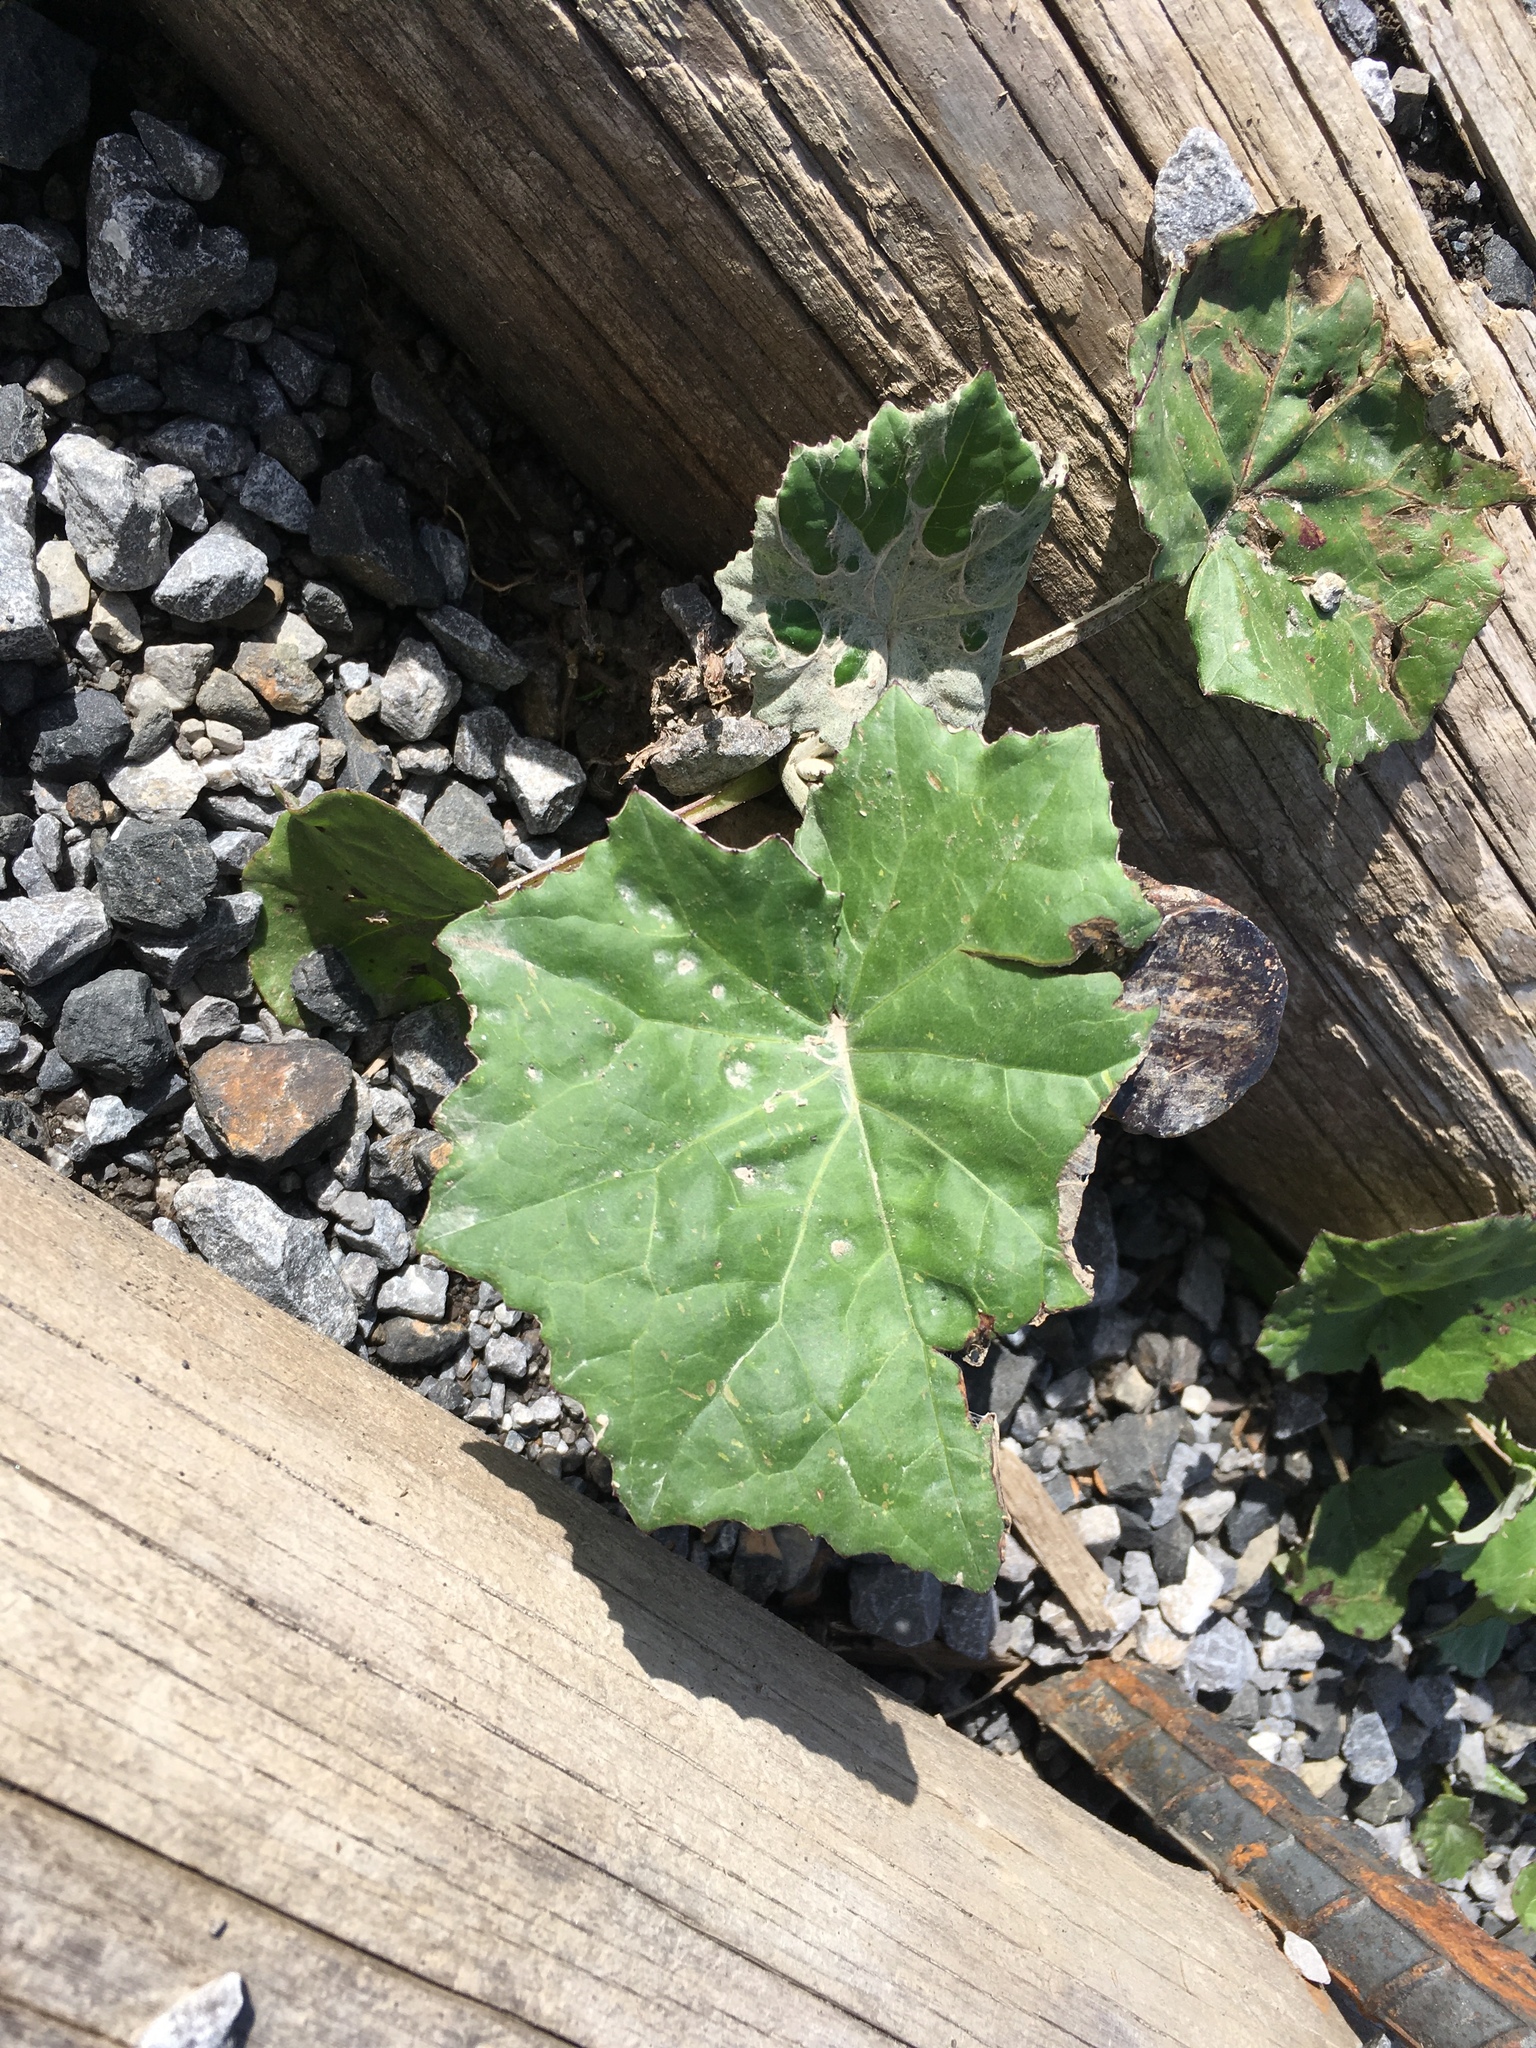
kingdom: Plantae
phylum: Tracheophyta
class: Magnoliopsida
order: Asterales
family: Asteraceae
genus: Tussilago
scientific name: Tussilago farfara
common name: Coltsfoot
